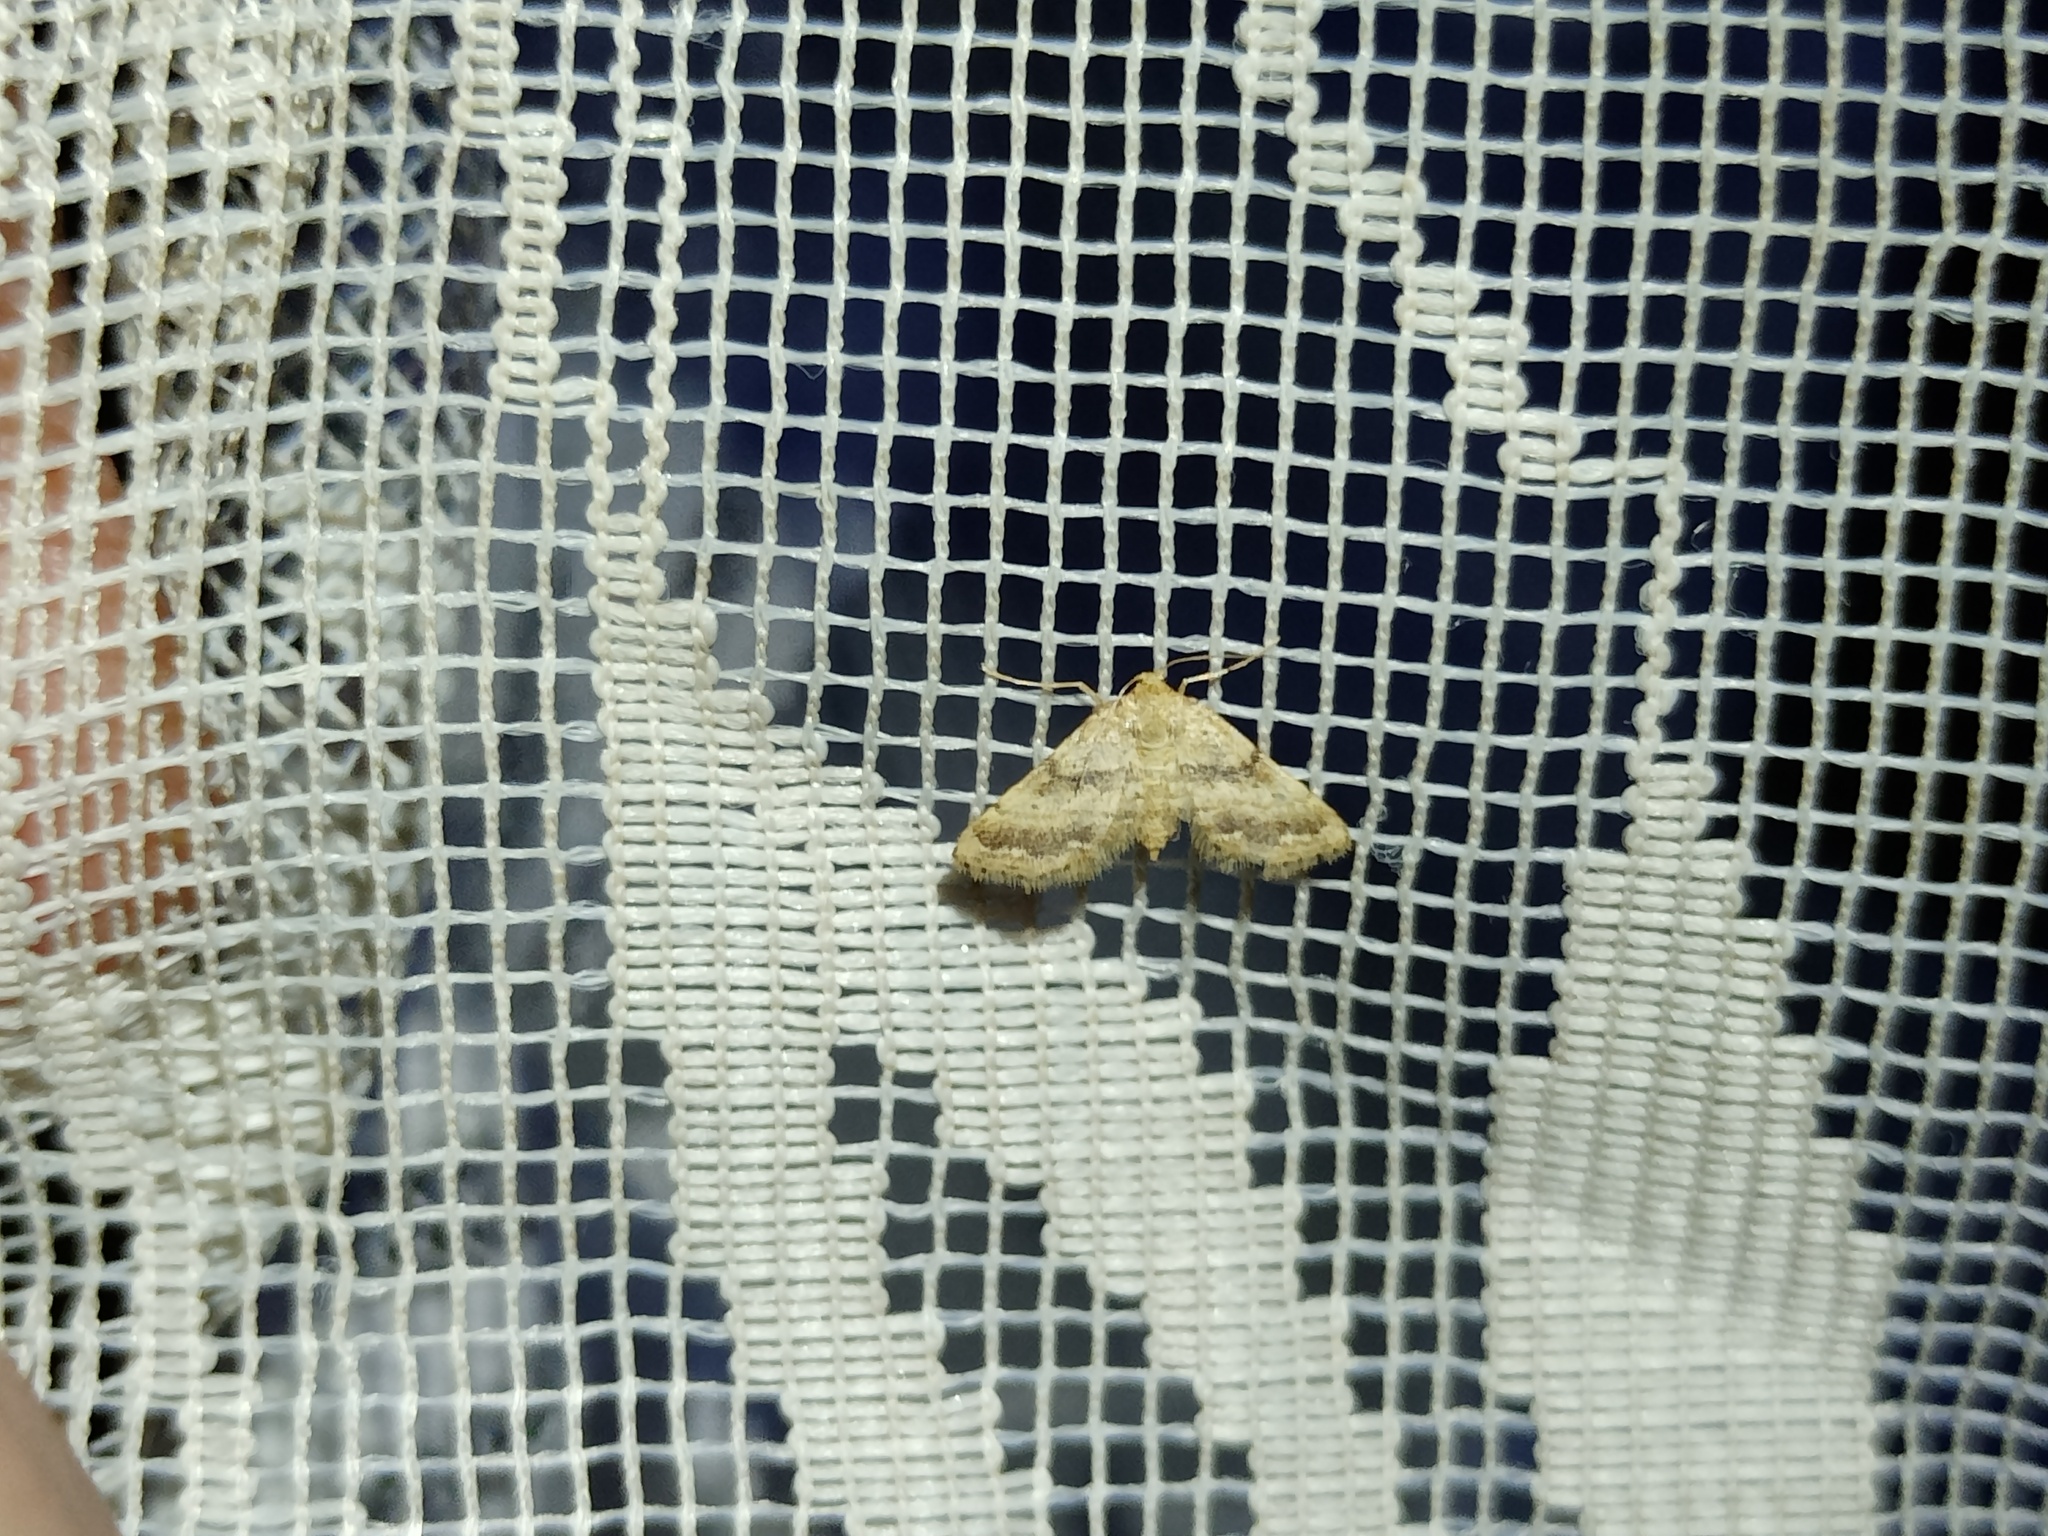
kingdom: Animalia
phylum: Arthropoda
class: Insecta
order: Lepidoptera
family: Geometridae
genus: Idaea
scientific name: Idaea inclinata
